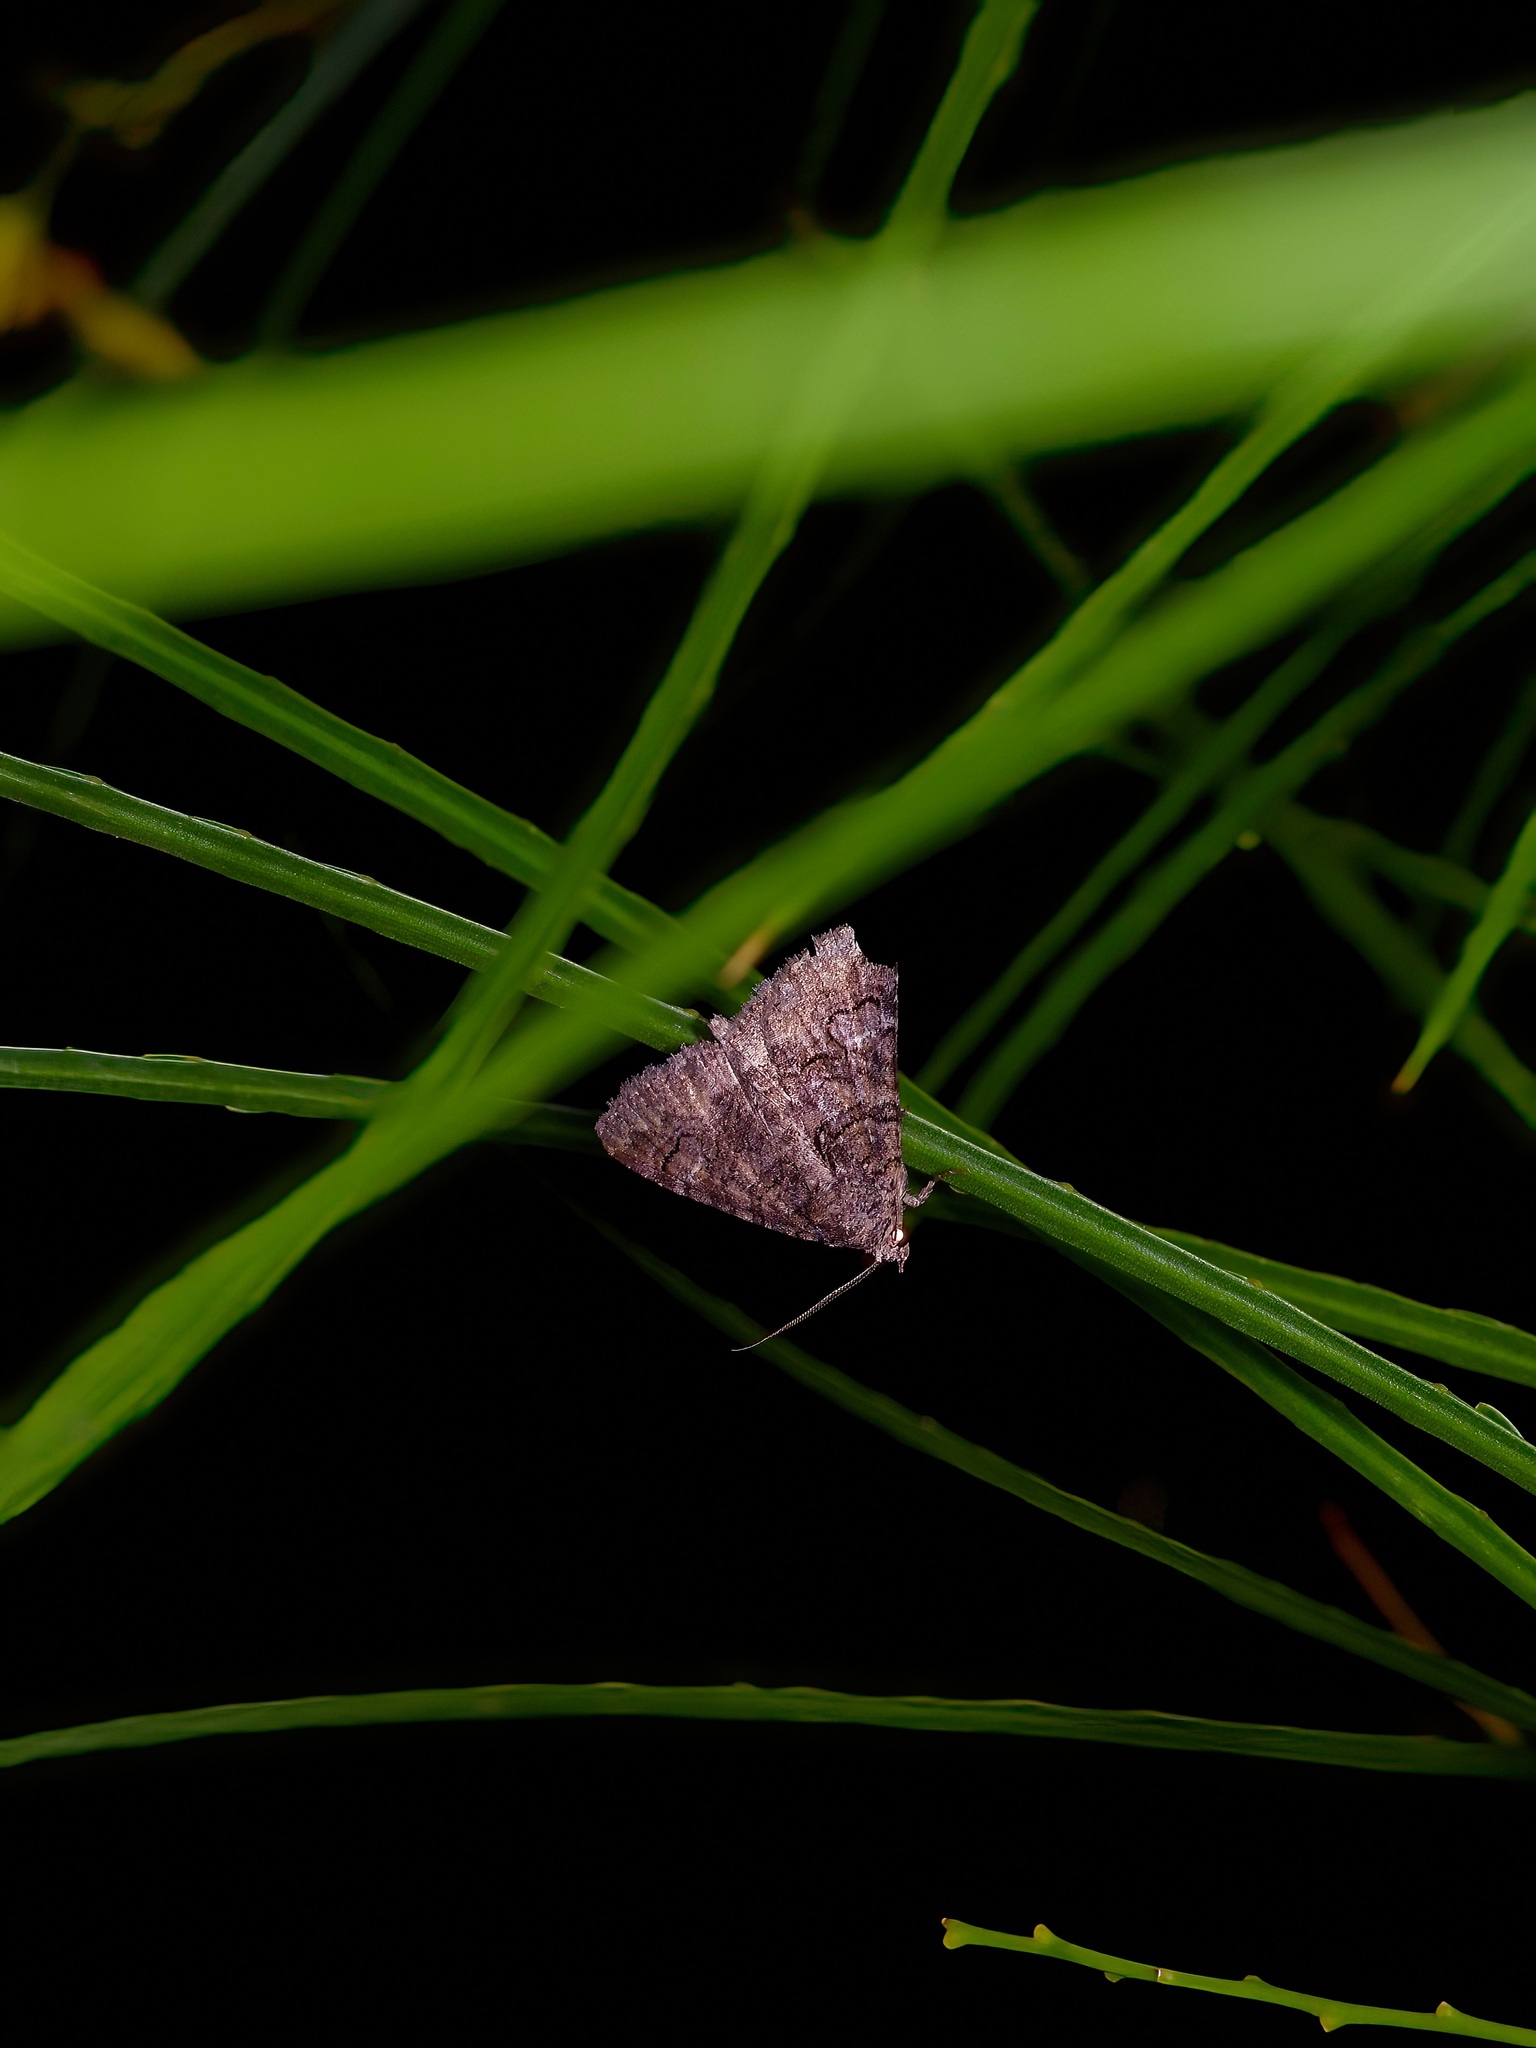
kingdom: Animalia
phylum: Arthropoda
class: Insecta
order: Lepidoptera
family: Erebidae
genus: Elousa
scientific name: Elousa mima
